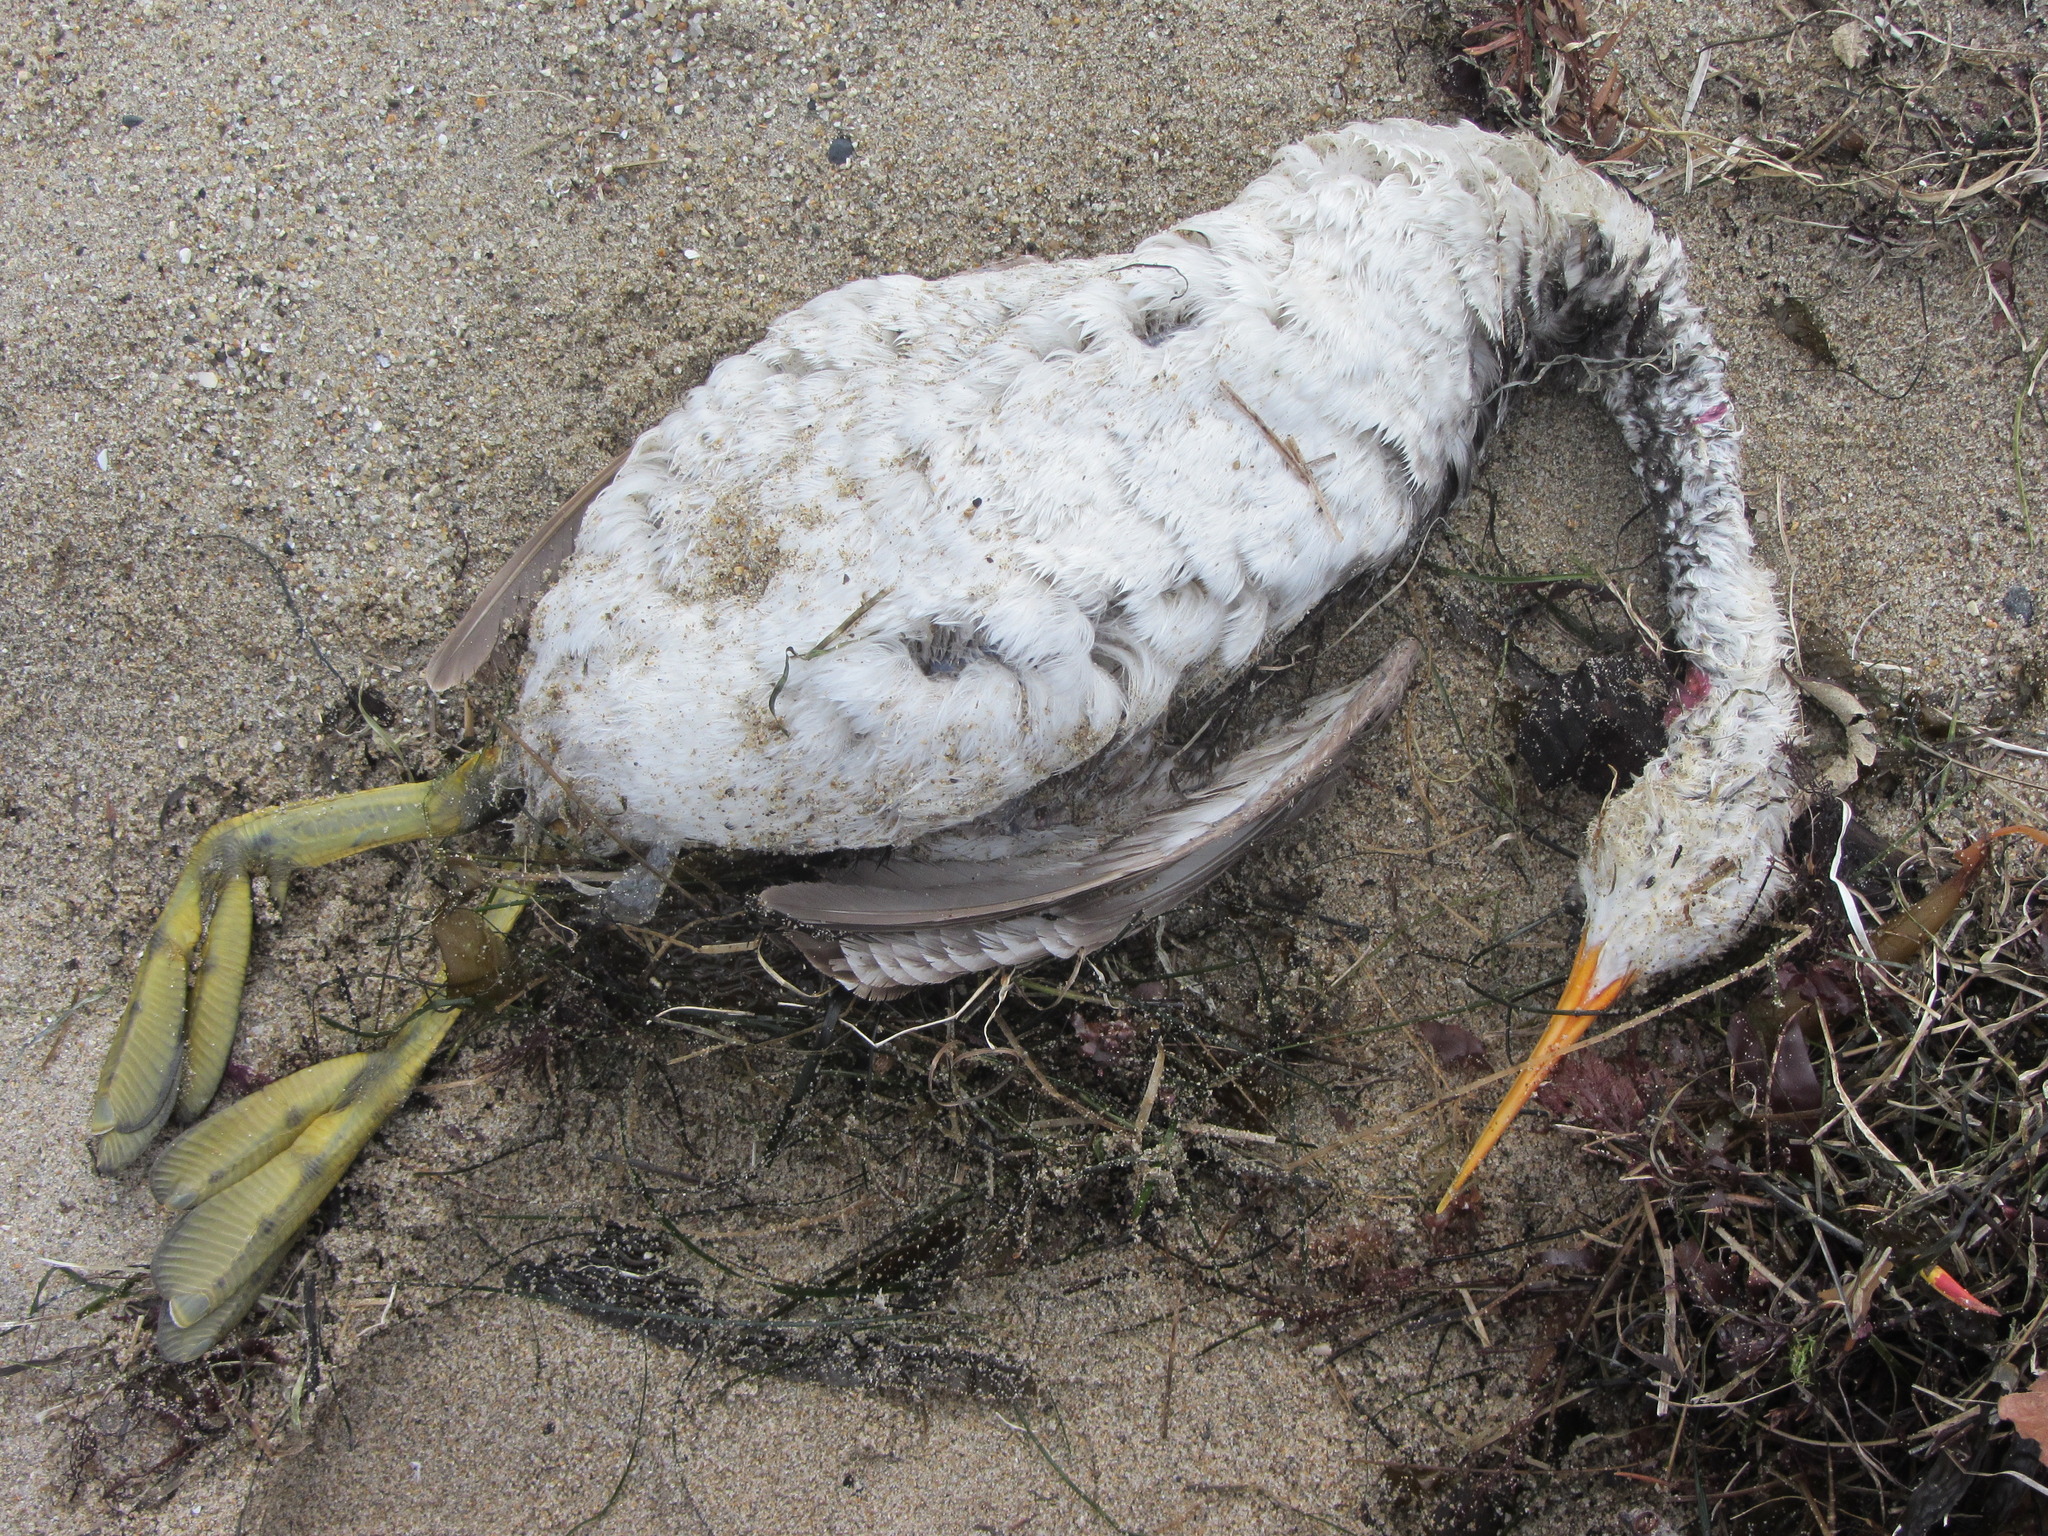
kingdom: Animalia
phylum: Chordata
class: Aves
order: Podicipediformes
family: Podicipedidae
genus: Aechmophorus
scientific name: Aechmophorus occidentalis
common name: Western grebe
